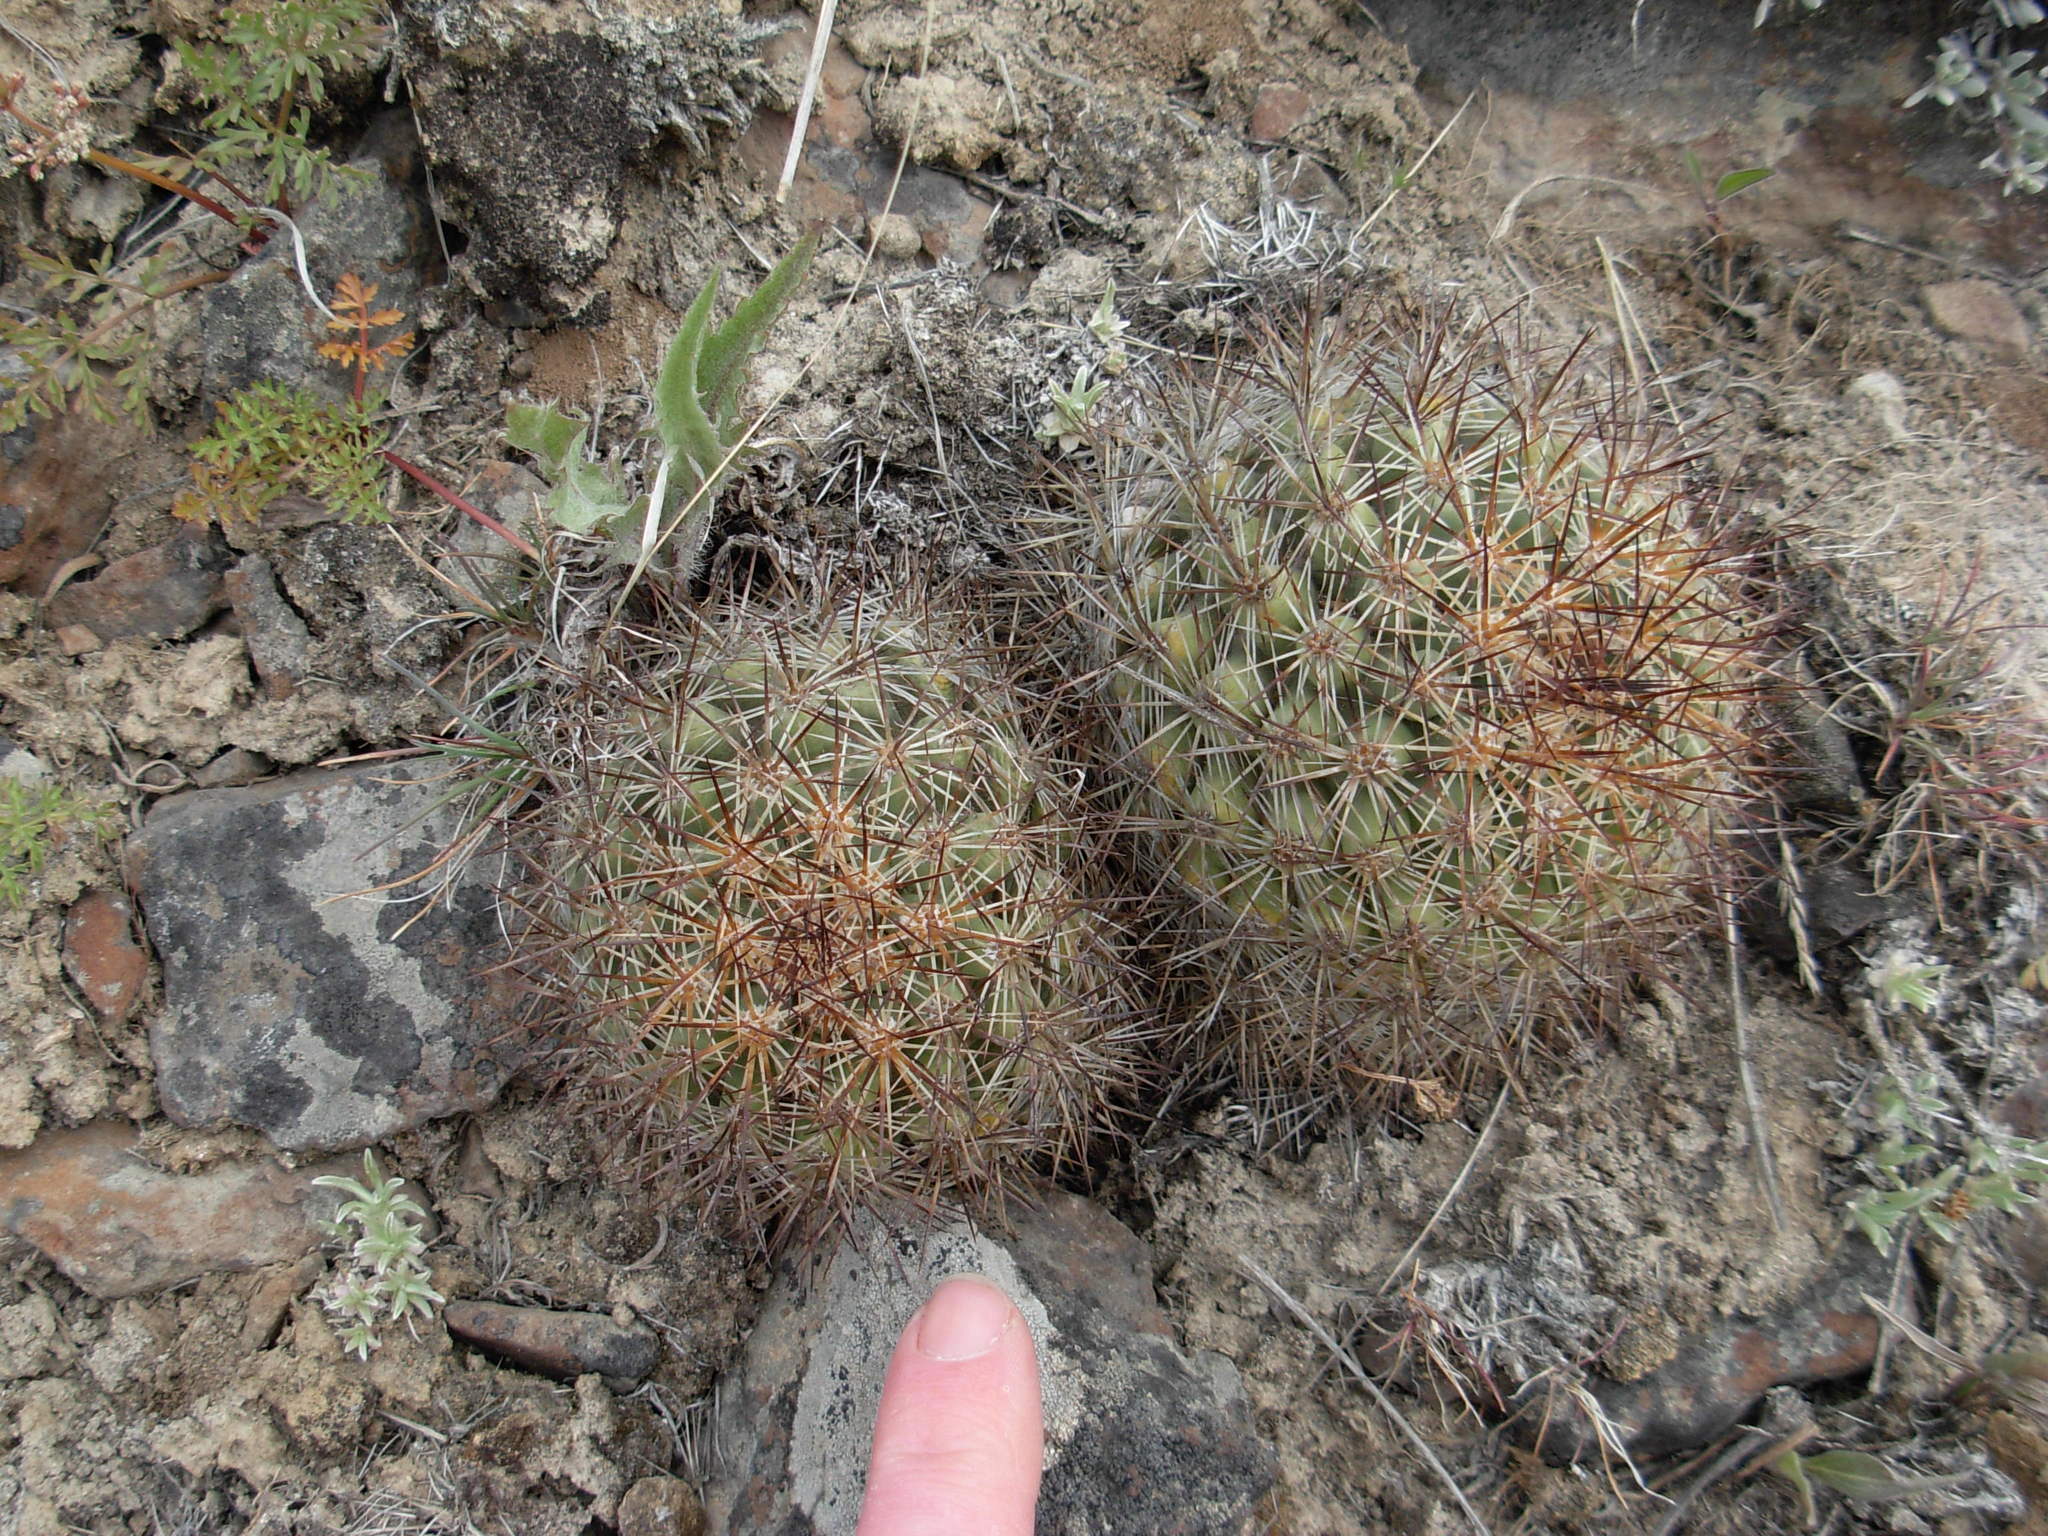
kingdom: Plantae
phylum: Tracheophyta
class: Magnoliopsida
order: Caryophyllales
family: Cactaceae
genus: Pediocactus
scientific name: Pediocactus nigrispinus
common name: Simpson's hedgehog cactus
